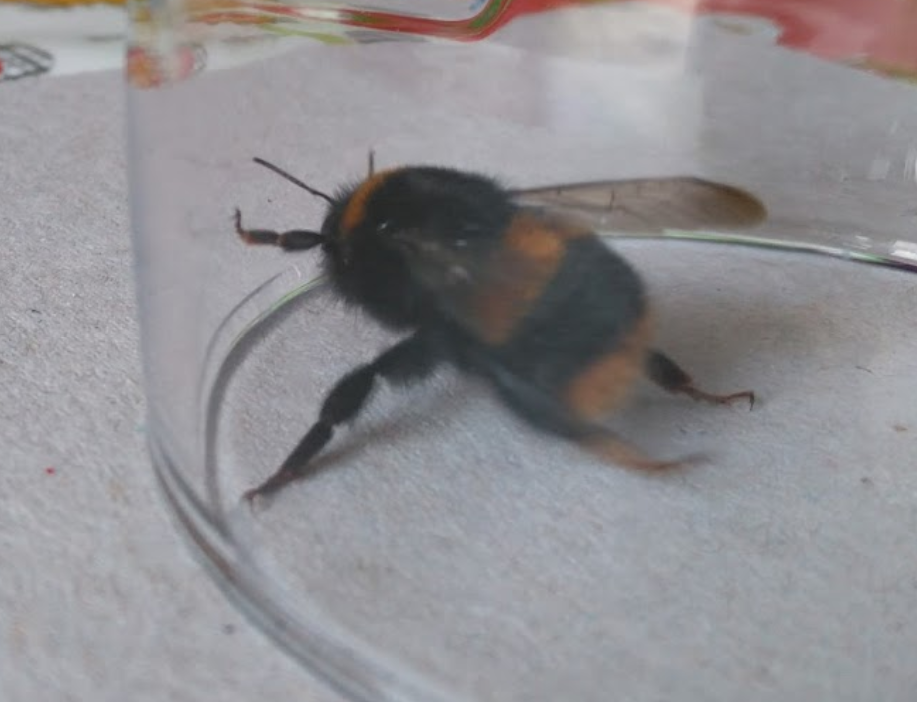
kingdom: Animalia
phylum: Arthropoda
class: Insecta
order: Hymenoptera
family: Apidae
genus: Bombus
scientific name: Bombus terrestris
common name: Buff-tailed bumblebee
